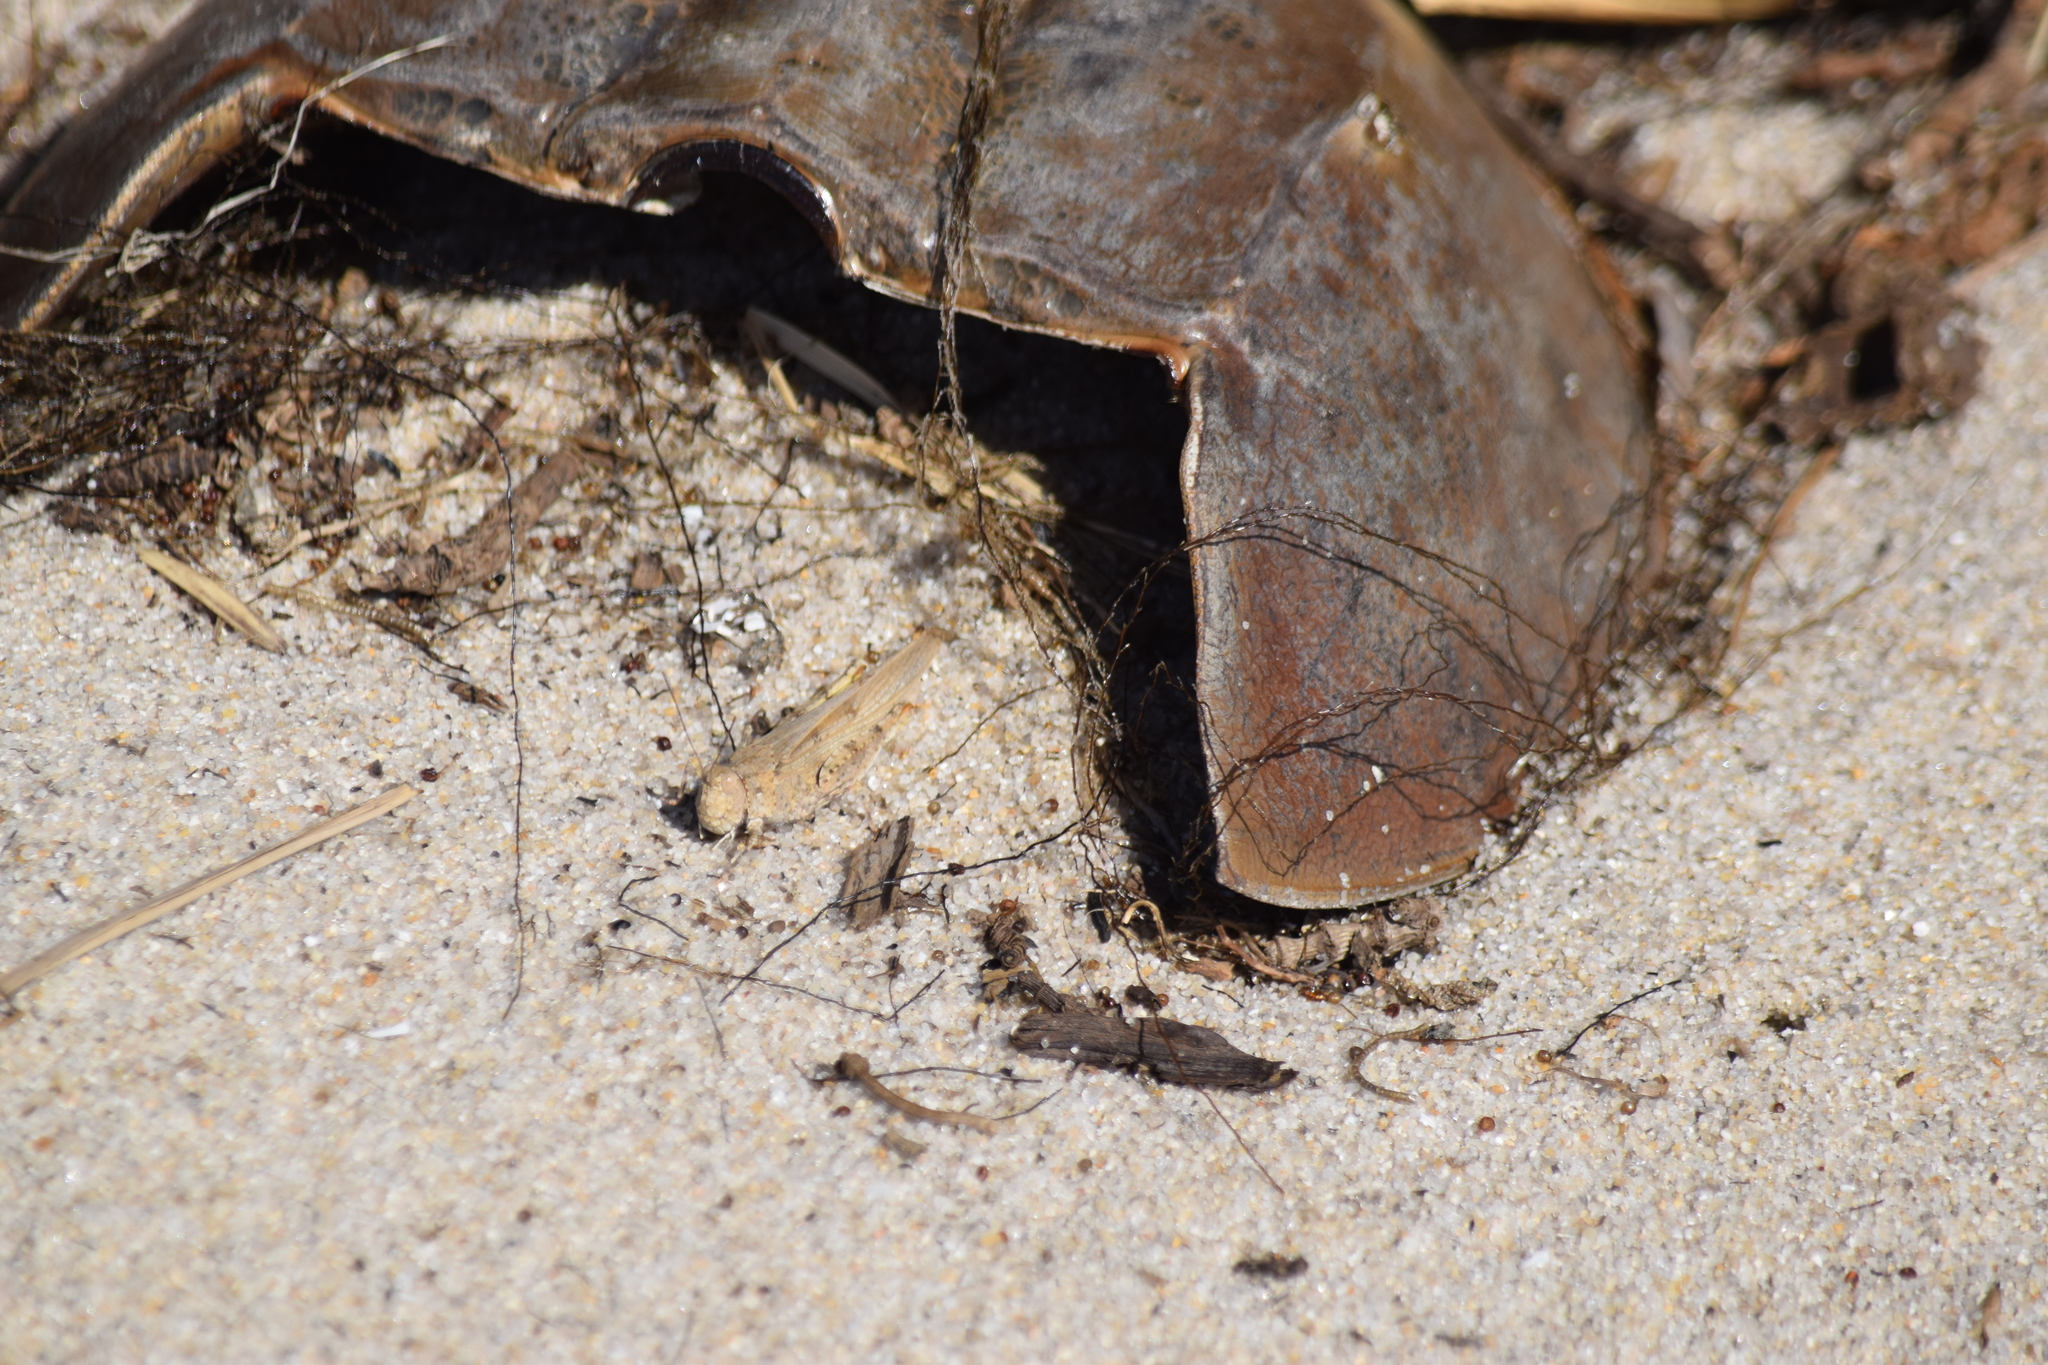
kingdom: Animalia
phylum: Arthropoda
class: Insecta
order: Orthoptera
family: Acrididae
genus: Trimerotropis
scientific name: Trimerotropis maritima
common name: Seaside locust
